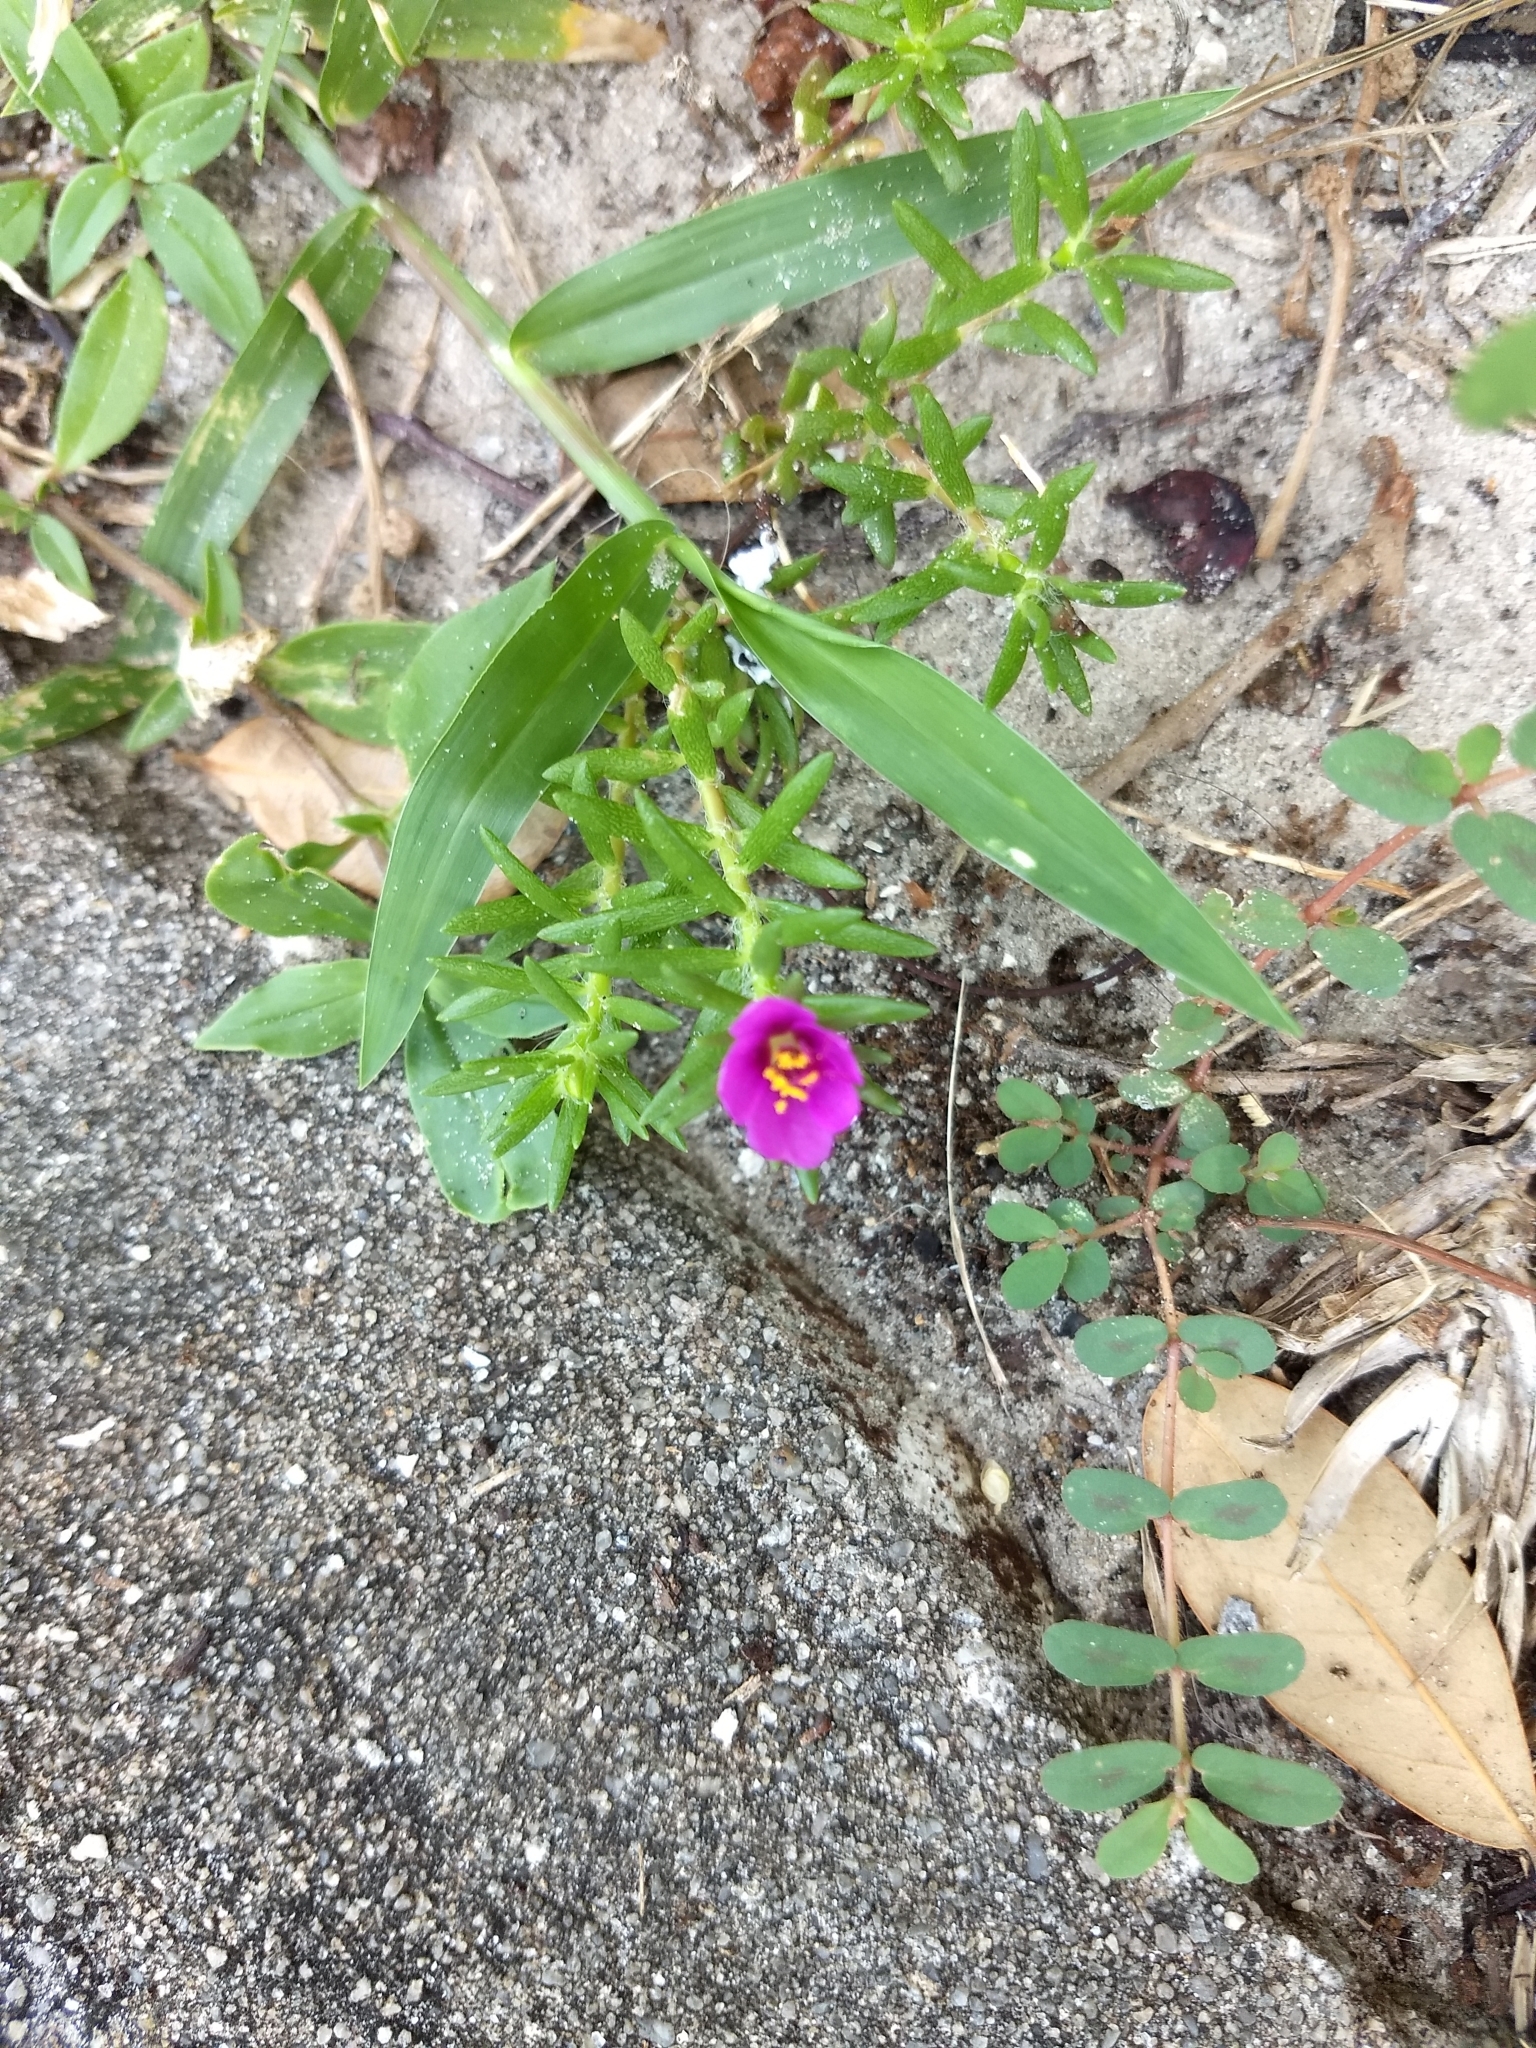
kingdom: Plantae
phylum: Tracheophyta
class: Magnoliopsida
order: Caryophyllales
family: Portulacaceae
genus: Portulaca
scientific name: Portulaca pilosa
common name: Kiss me quick
